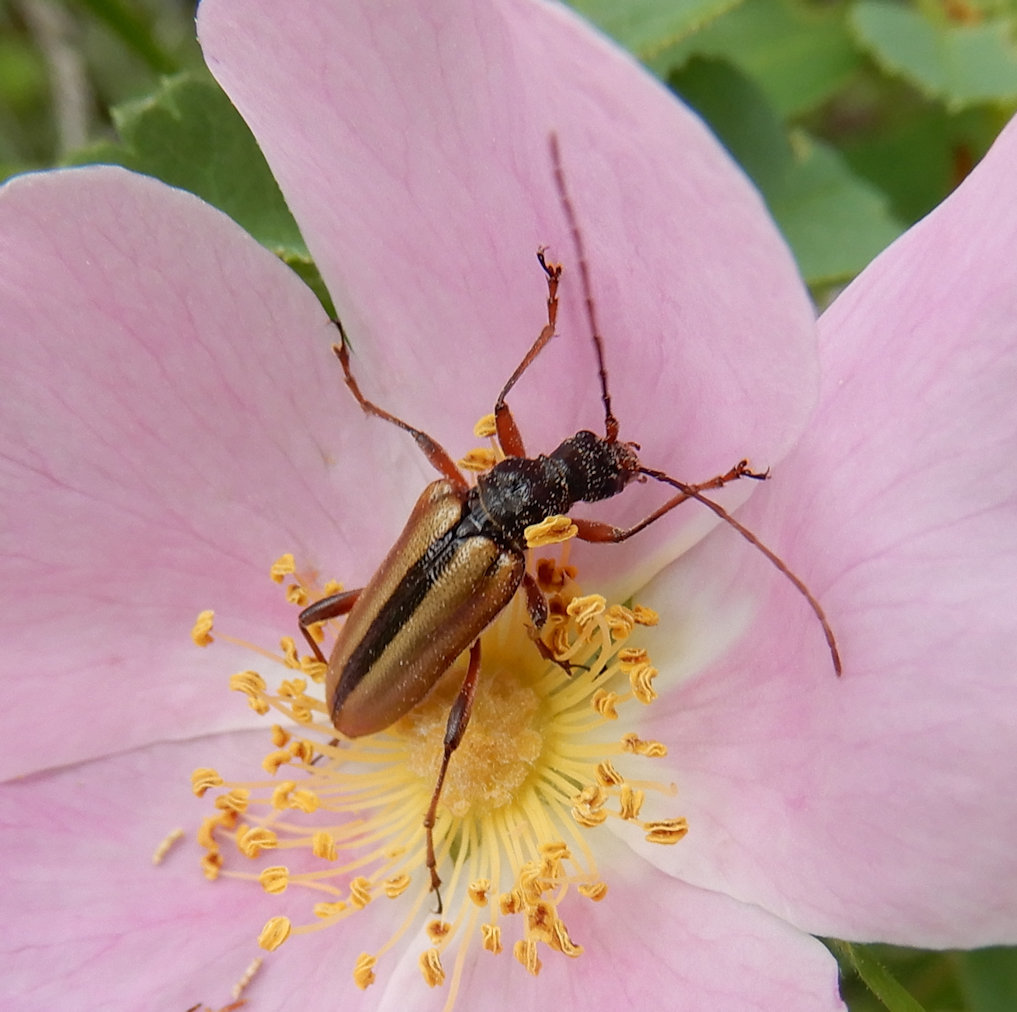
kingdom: Animalia
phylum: Arthropoda
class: Insecta
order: Coleoptera
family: Cerambycidae
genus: Cortodera
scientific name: Cortodera longicornis
